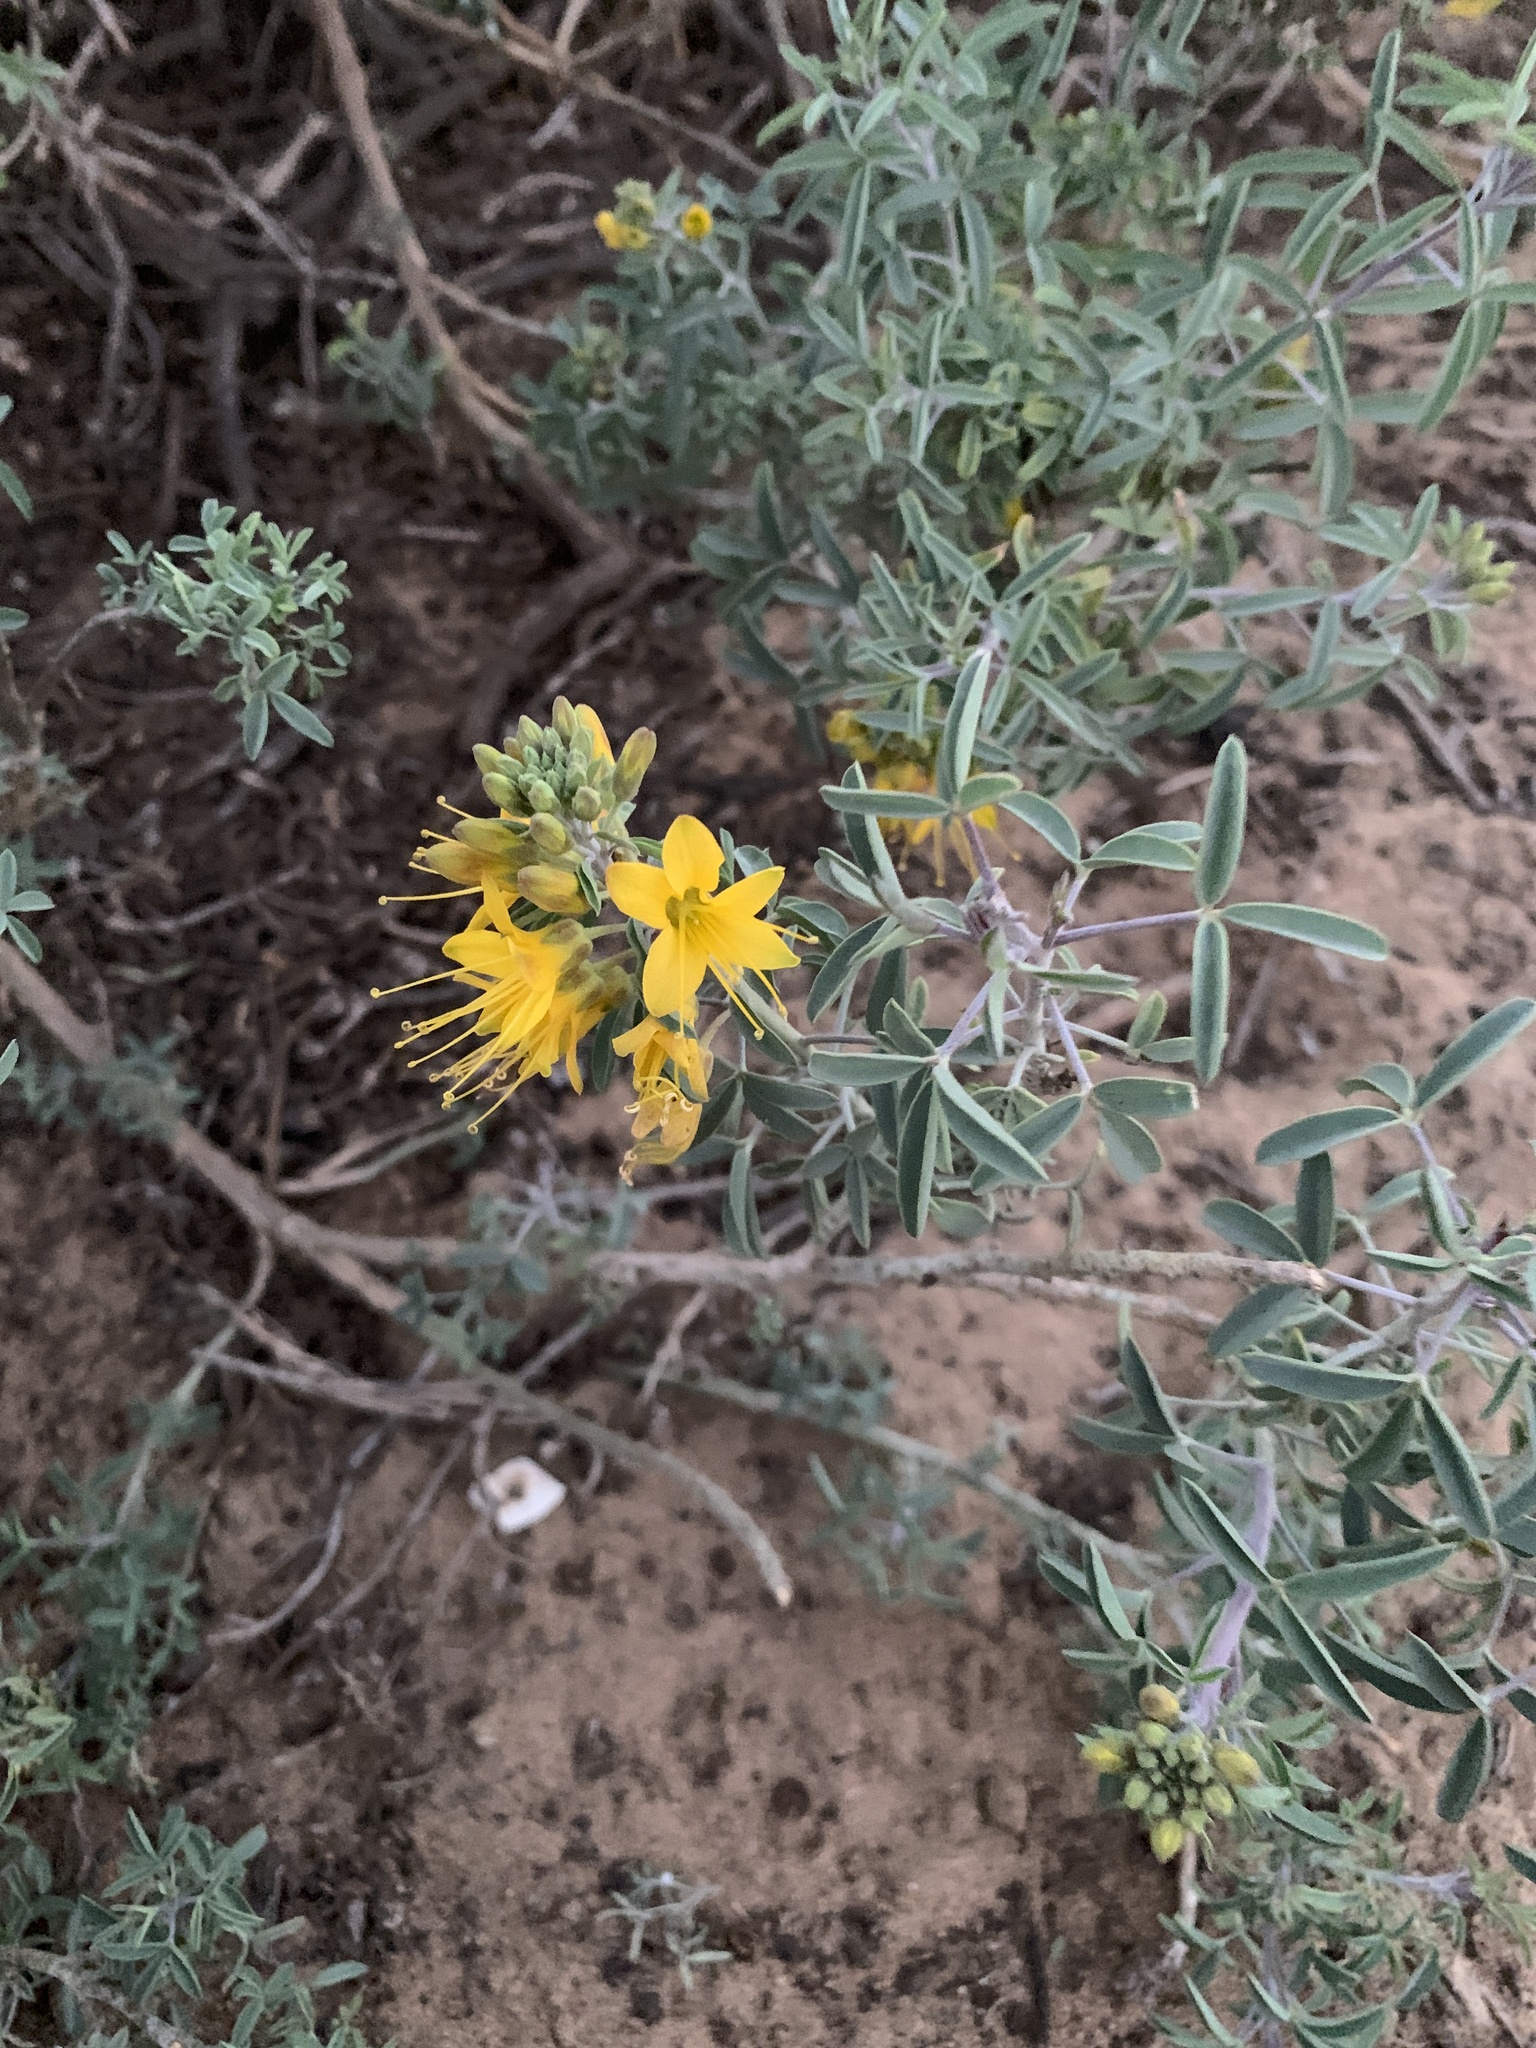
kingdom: Plantae
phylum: Tracheophyta
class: Magnoliopsida
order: Brassicales
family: Cleomaceae
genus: Cleomella
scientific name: Cleomella arborea
